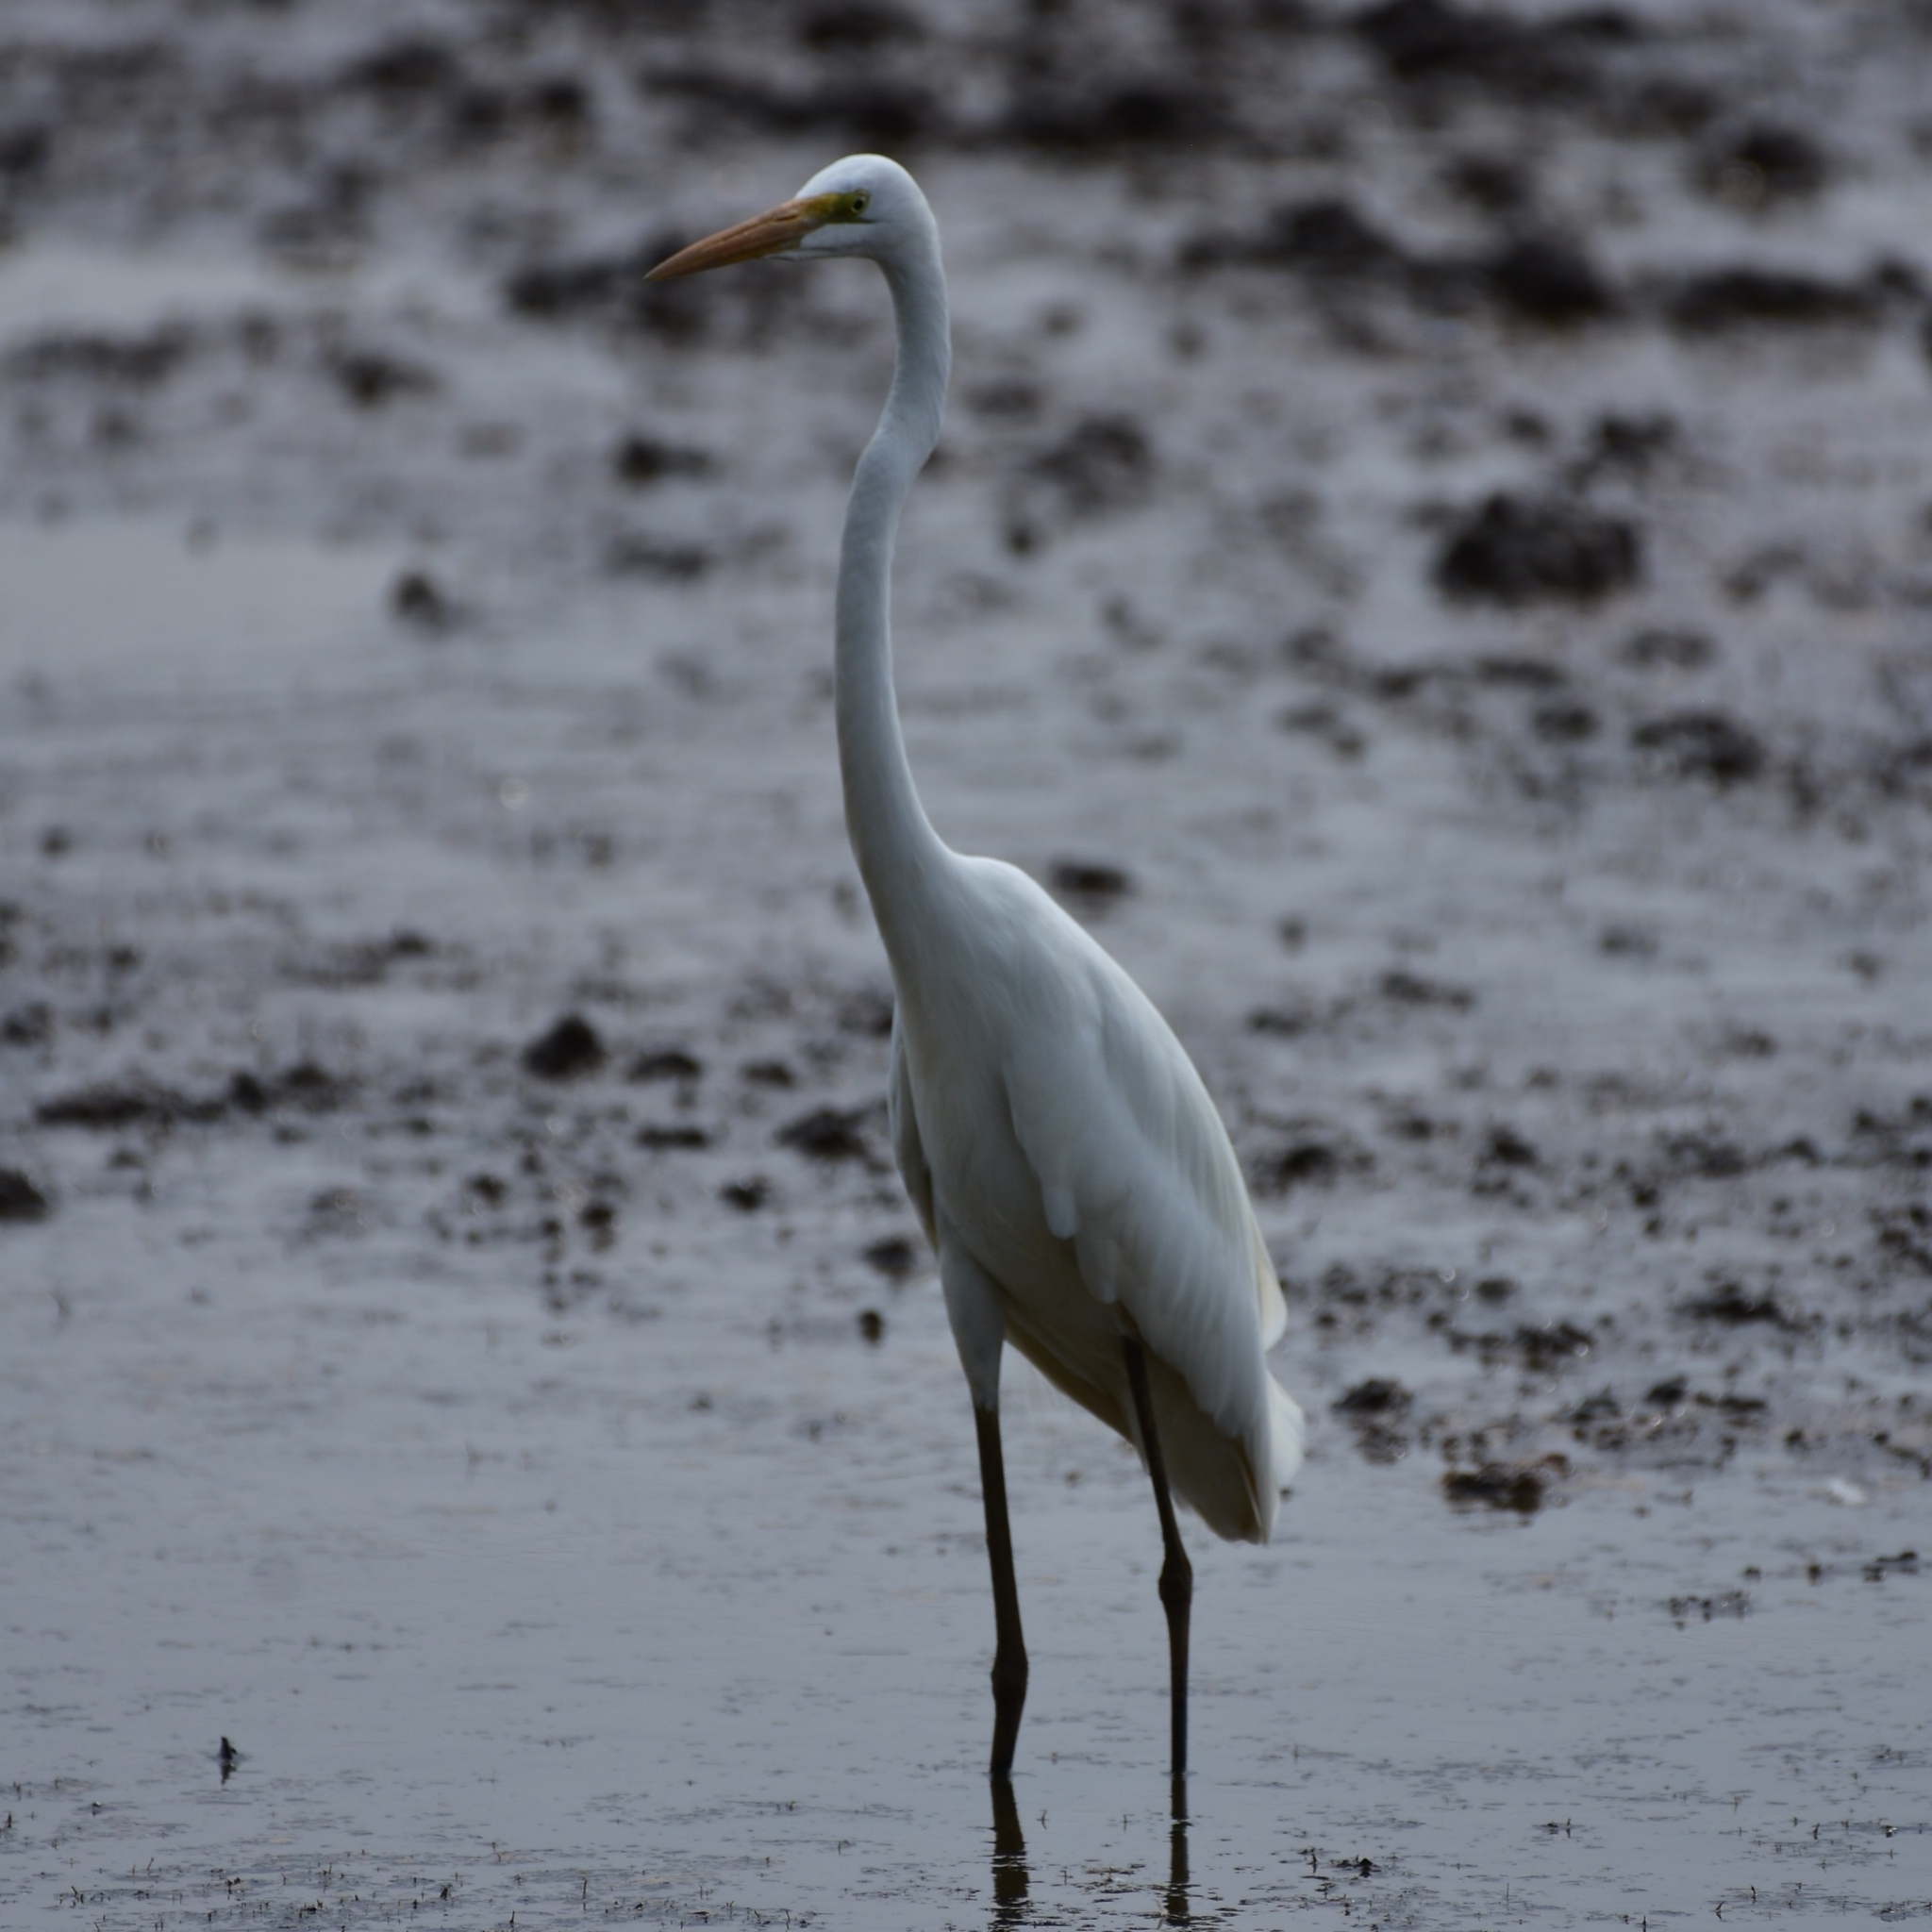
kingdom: Animalia
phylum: Chordata
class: Aves
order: Pelecaniformes
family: Ardeidae
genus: Ardea
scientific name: Ardea alba
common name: Great egret
